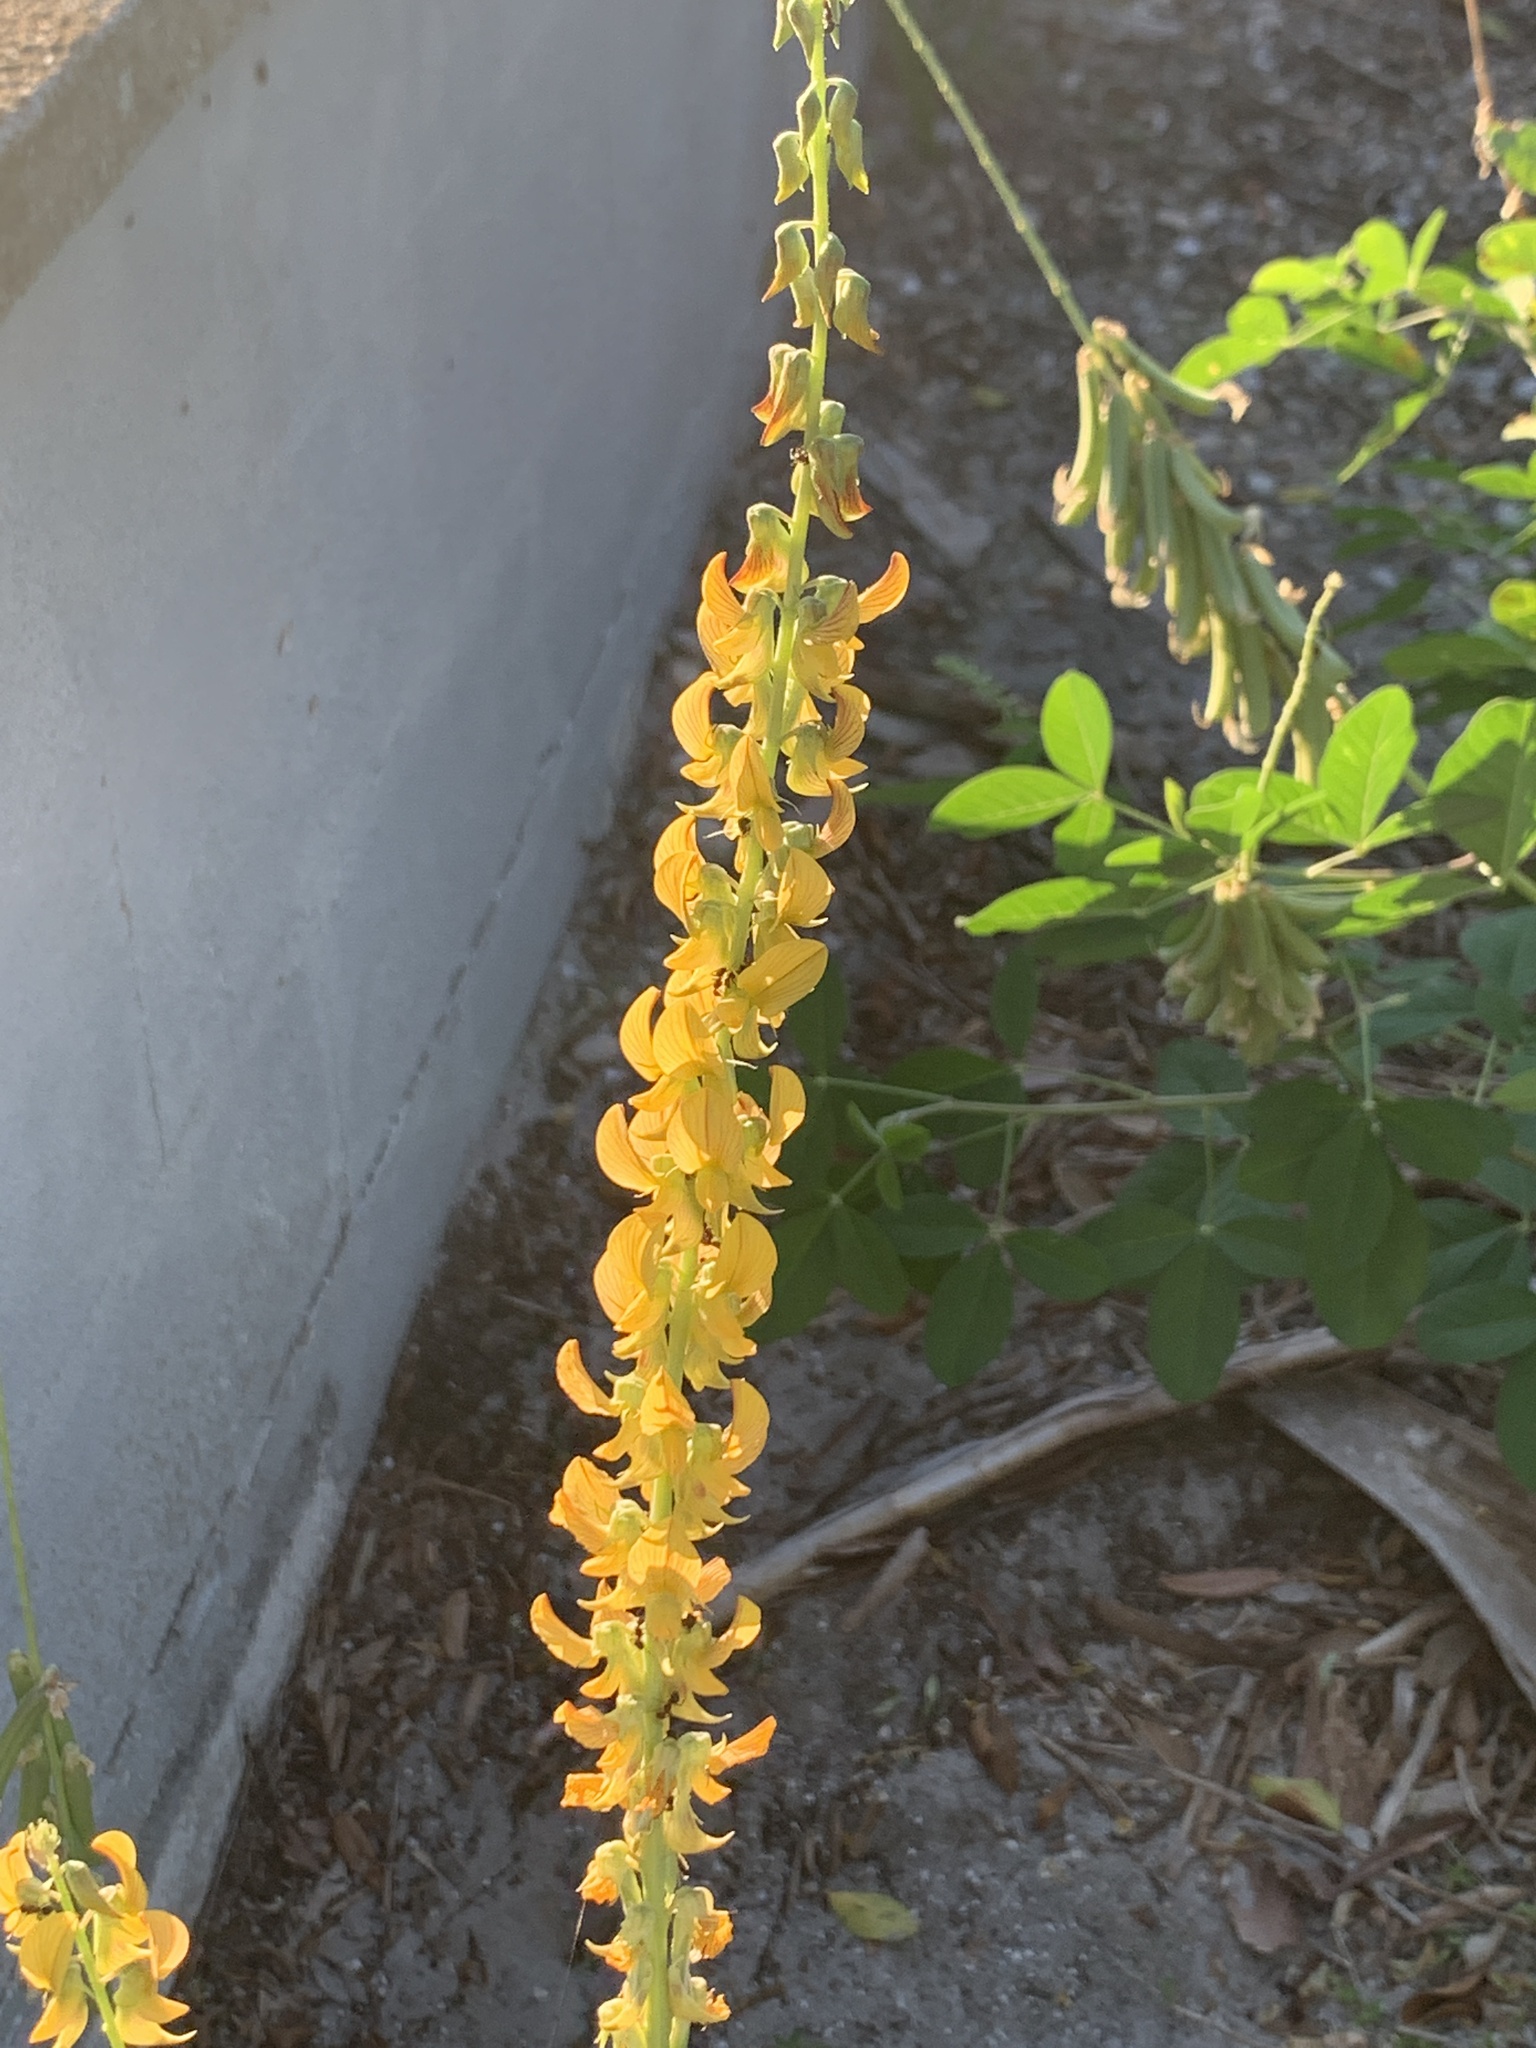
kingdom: Plantae
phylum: Tracheophyta
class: Magnoliopsida
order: Fabales
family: Fabaceae
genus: Crotalaria
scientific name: Crotalaria pallida
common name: Smooth rattlebox
